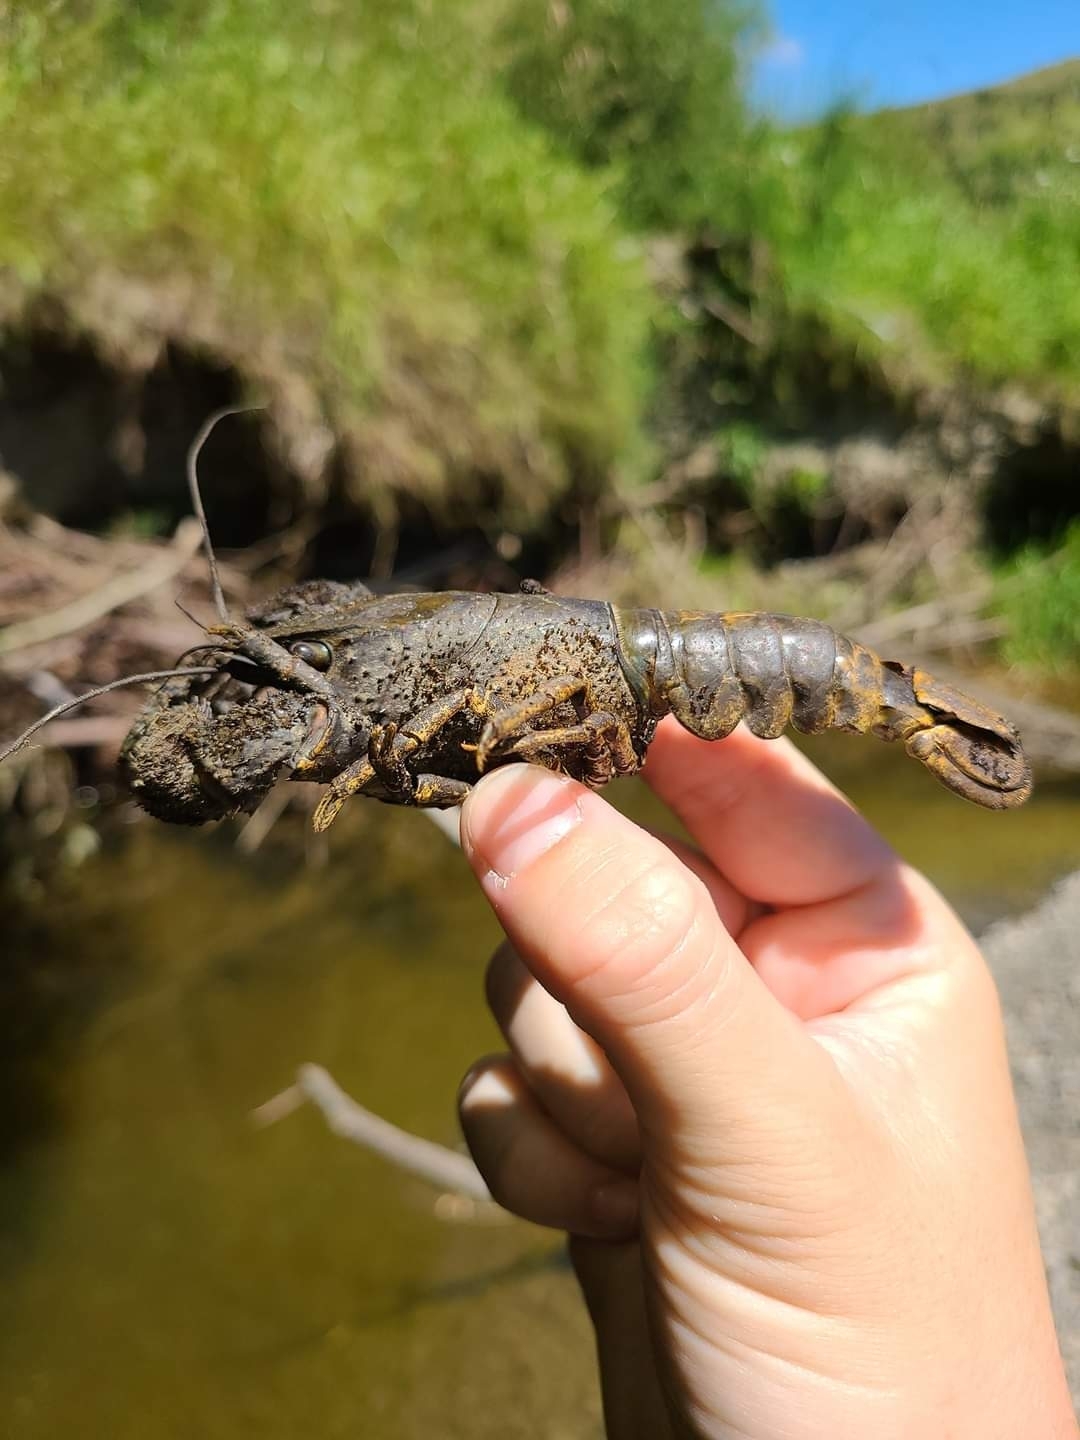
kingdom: Animalia
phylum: Arthropoda
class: Malacostraca
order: Decapoda
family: Parastacidae
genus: Paranephrops
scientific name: Paranephrops zealandicus
